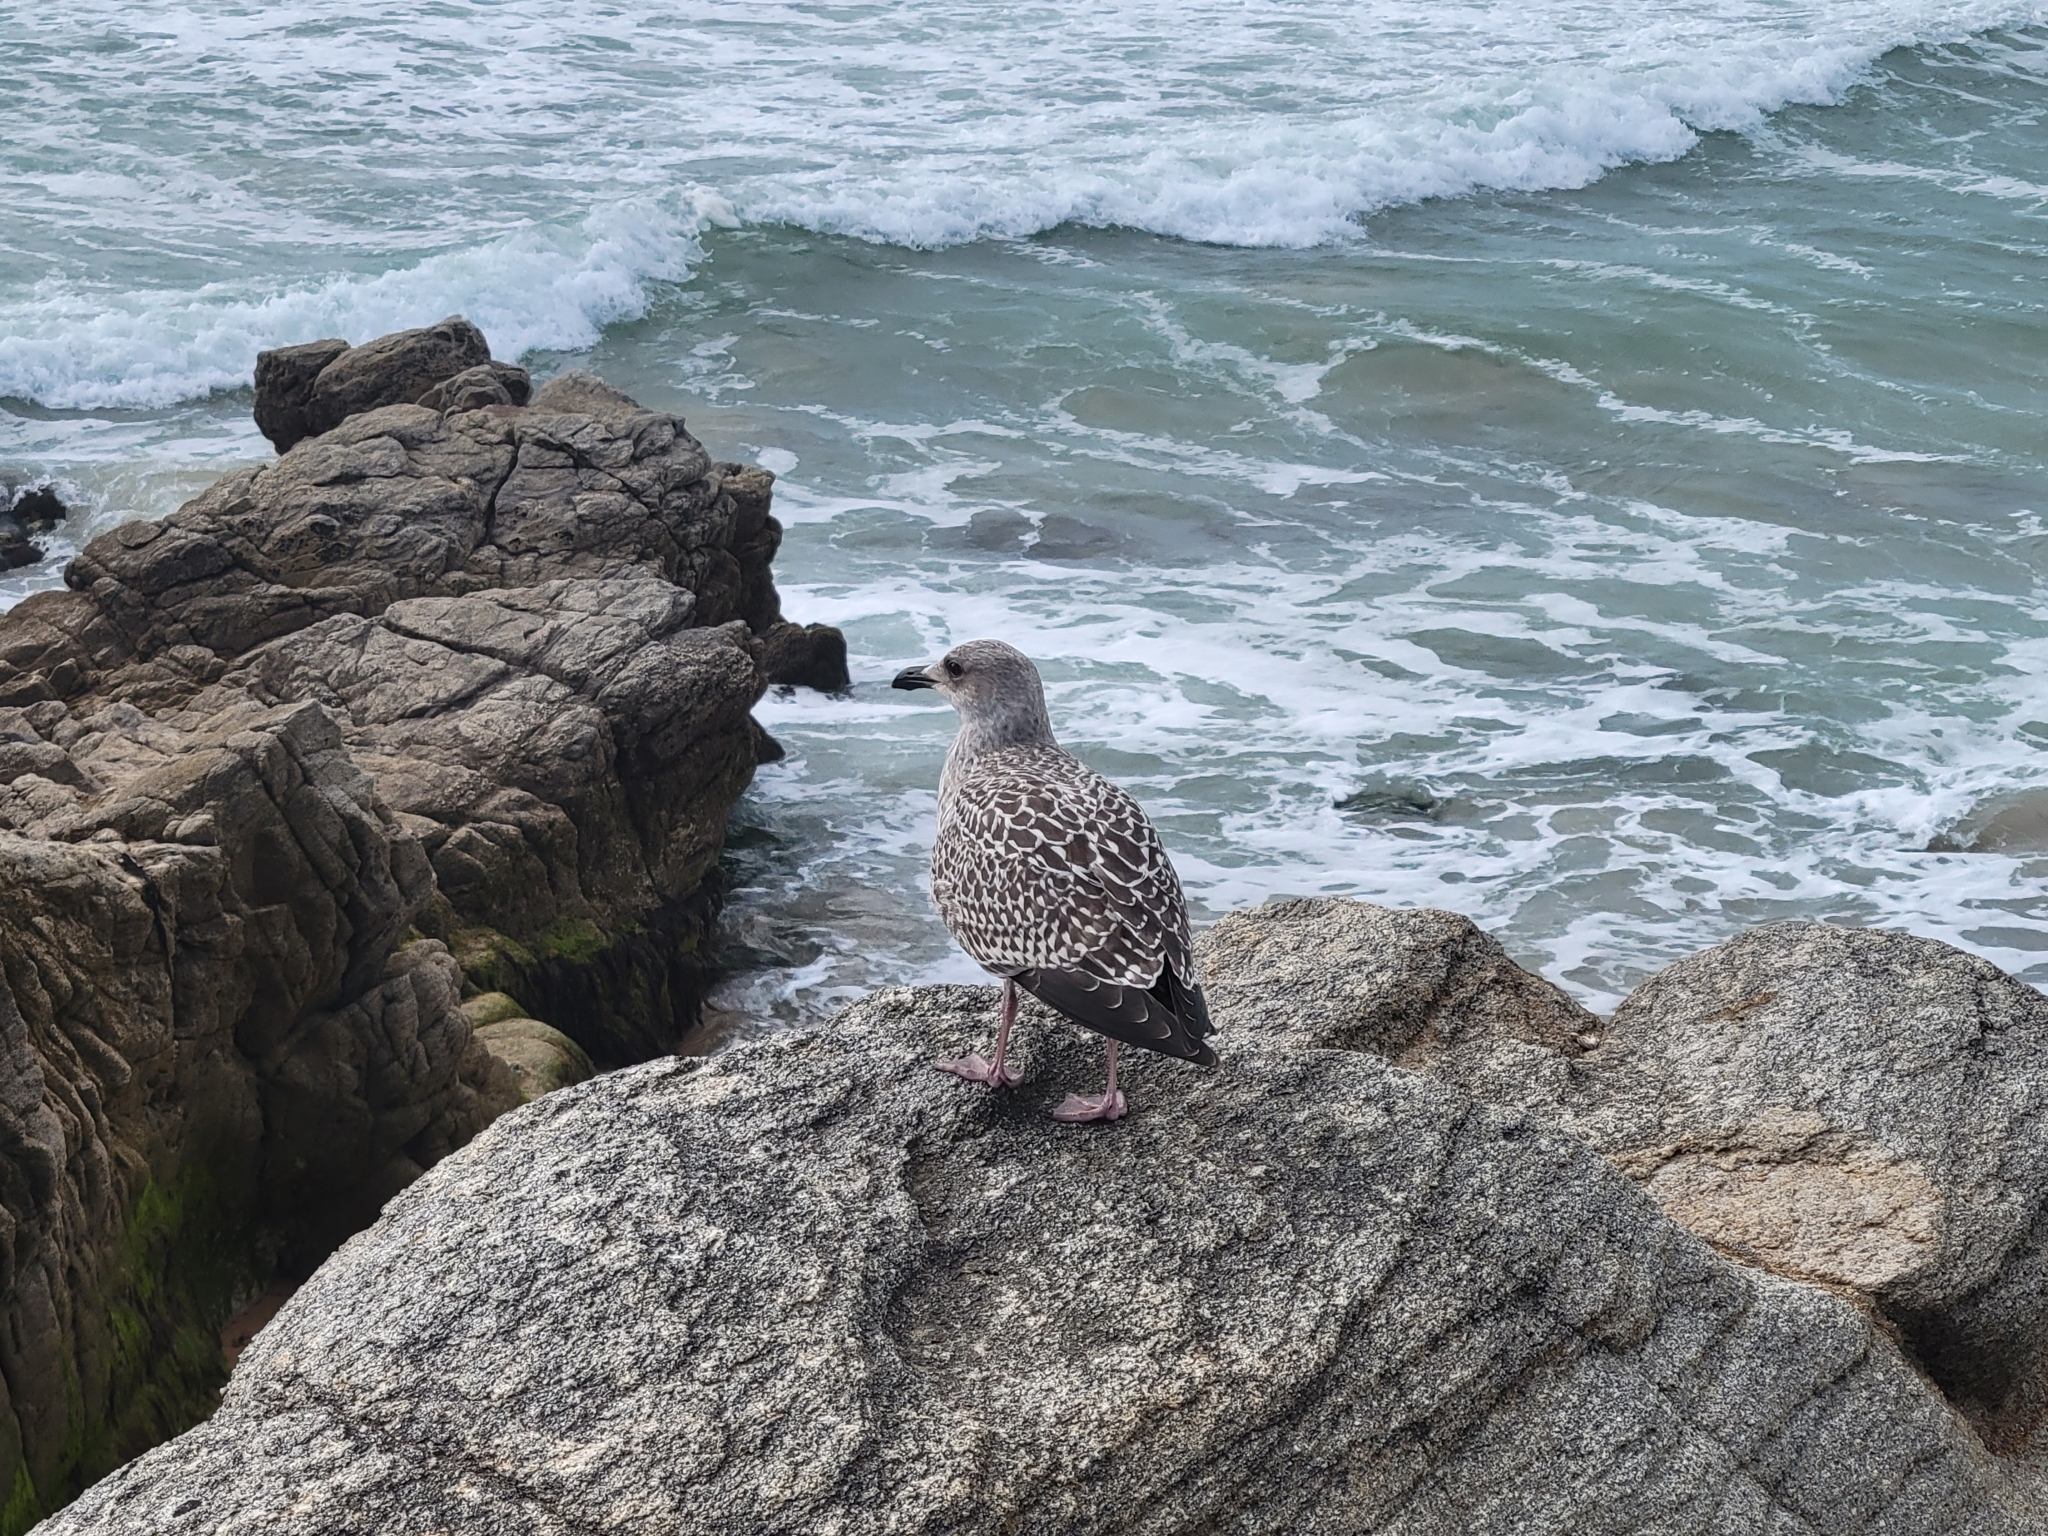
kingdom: Animalia
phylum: Chordata
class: Aves
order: Charadriiformes
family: Laridae
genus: Larus
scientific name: Larus argentatus
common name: Herring gull
